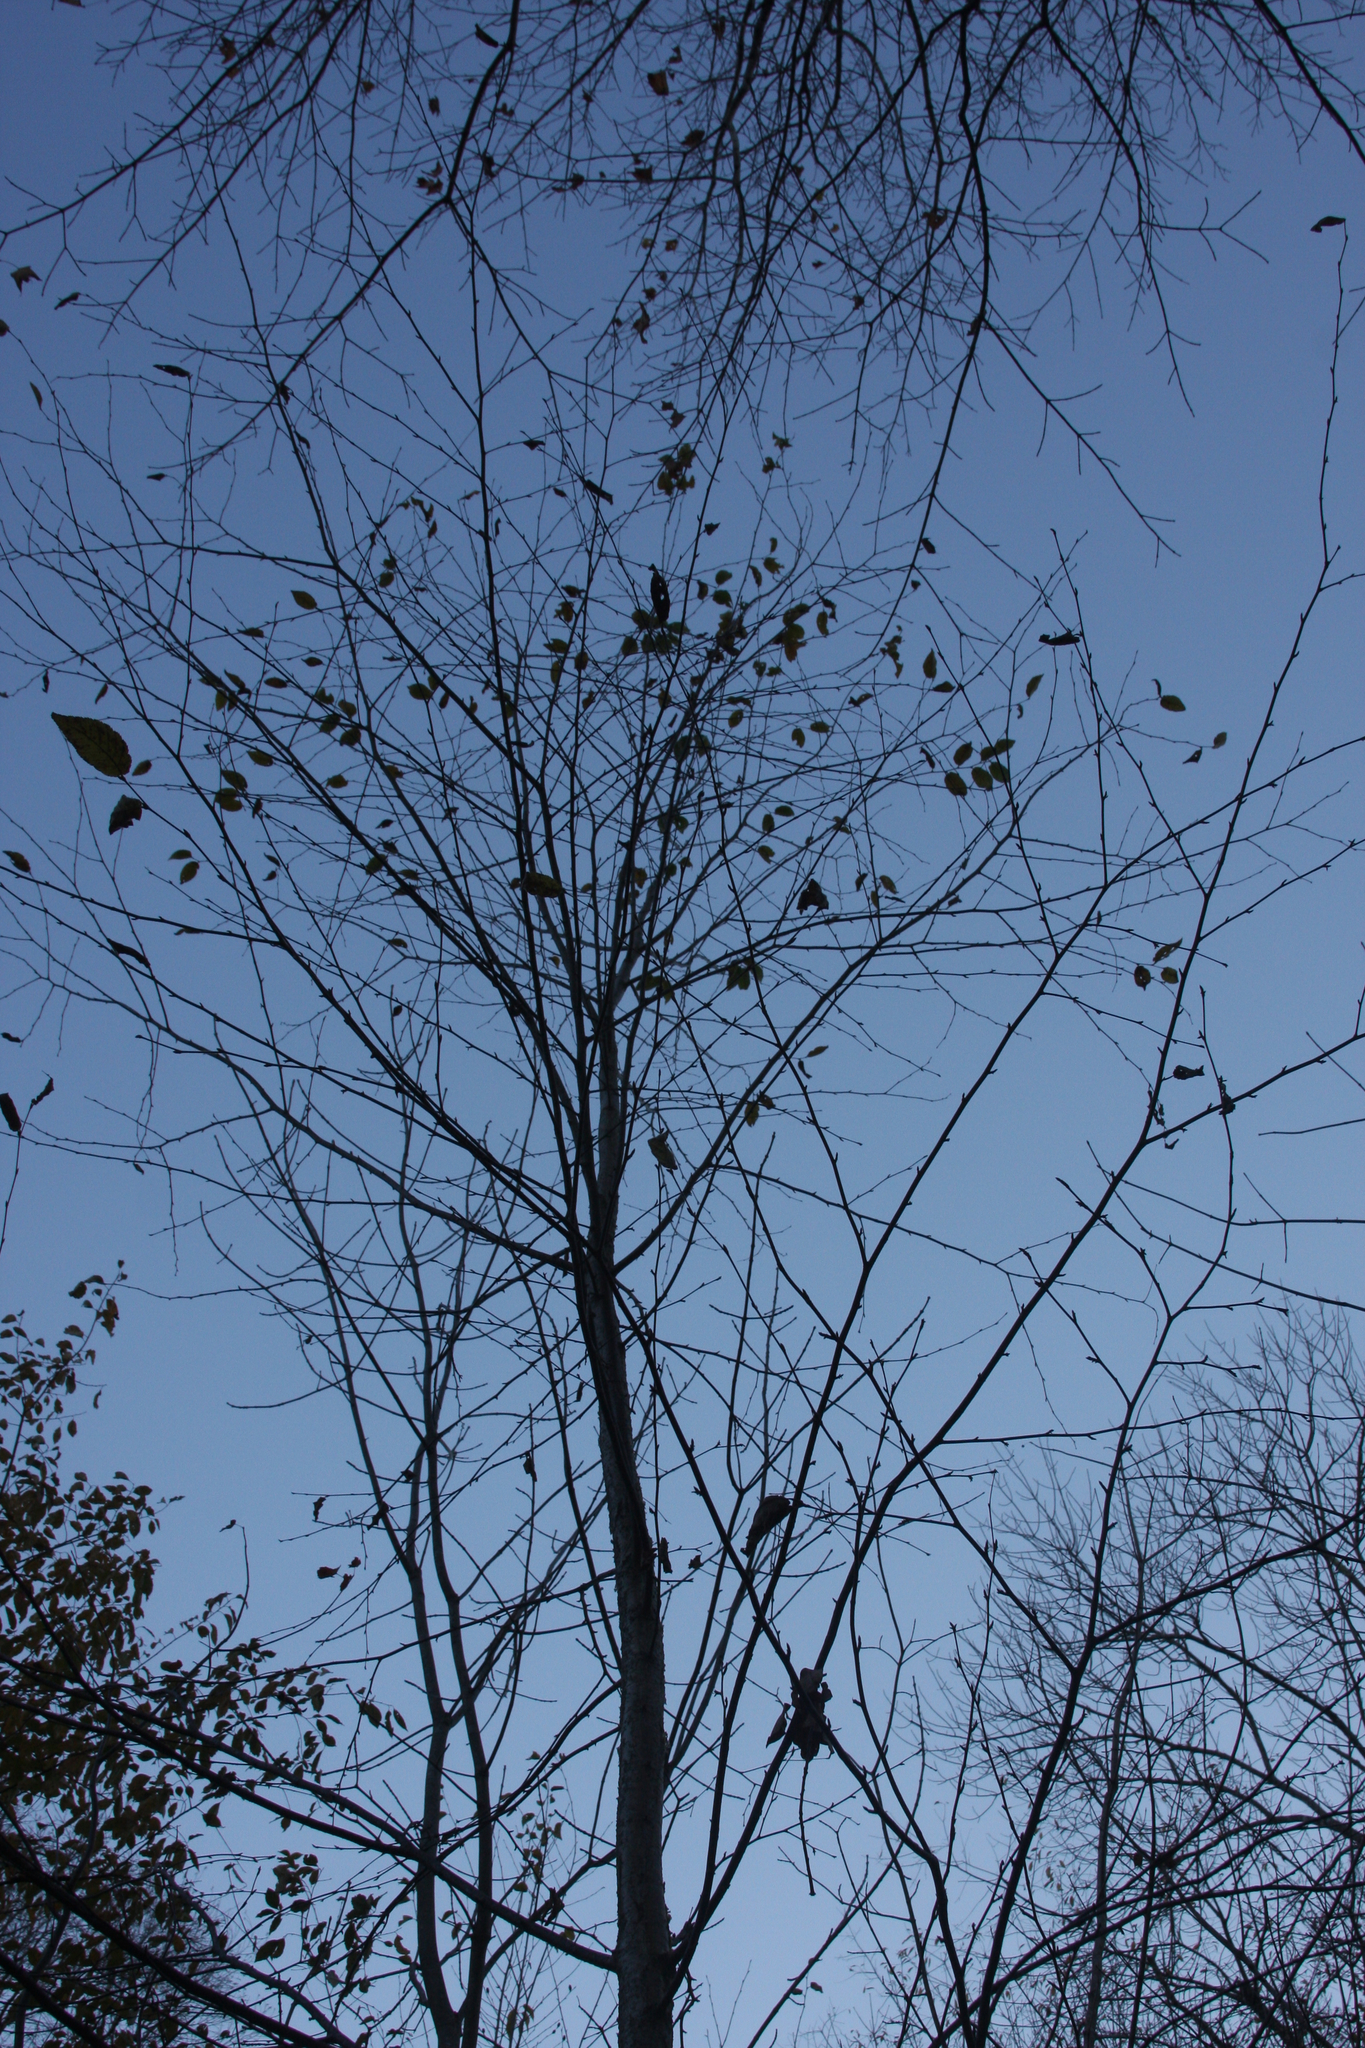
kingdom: Plantae
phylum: Tracheophyta
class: Magnoliopsida
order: Fagales
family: Betulaceae
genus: Betula
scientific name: Betula alleghaniensis
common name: Yellow birch
